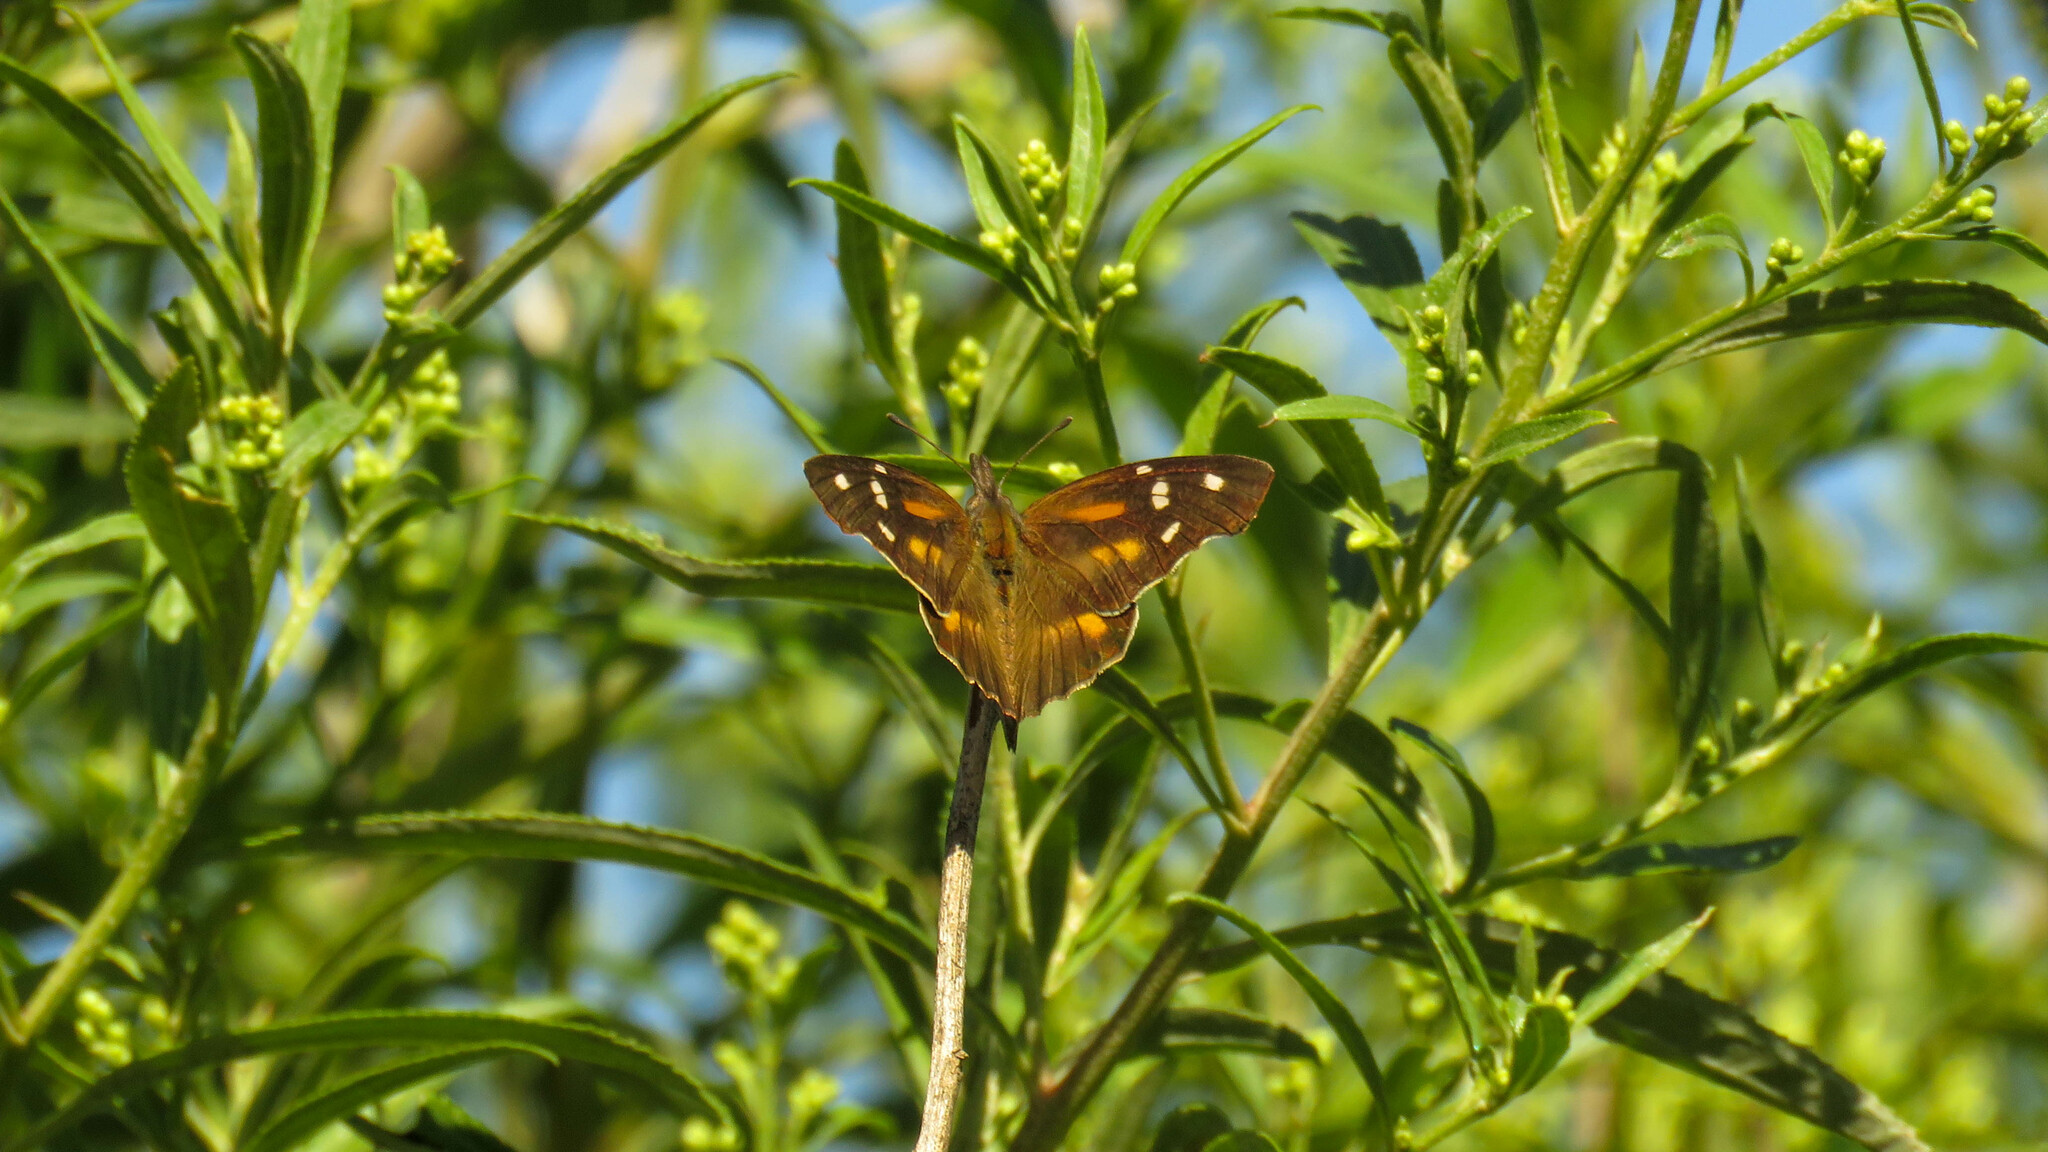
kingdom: Animalia
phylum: Arthropoda
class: Insecta
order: Lepidoptera
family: Nymphalidae
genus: Libytheana
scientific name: Libytheana carinenta
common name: American snout
